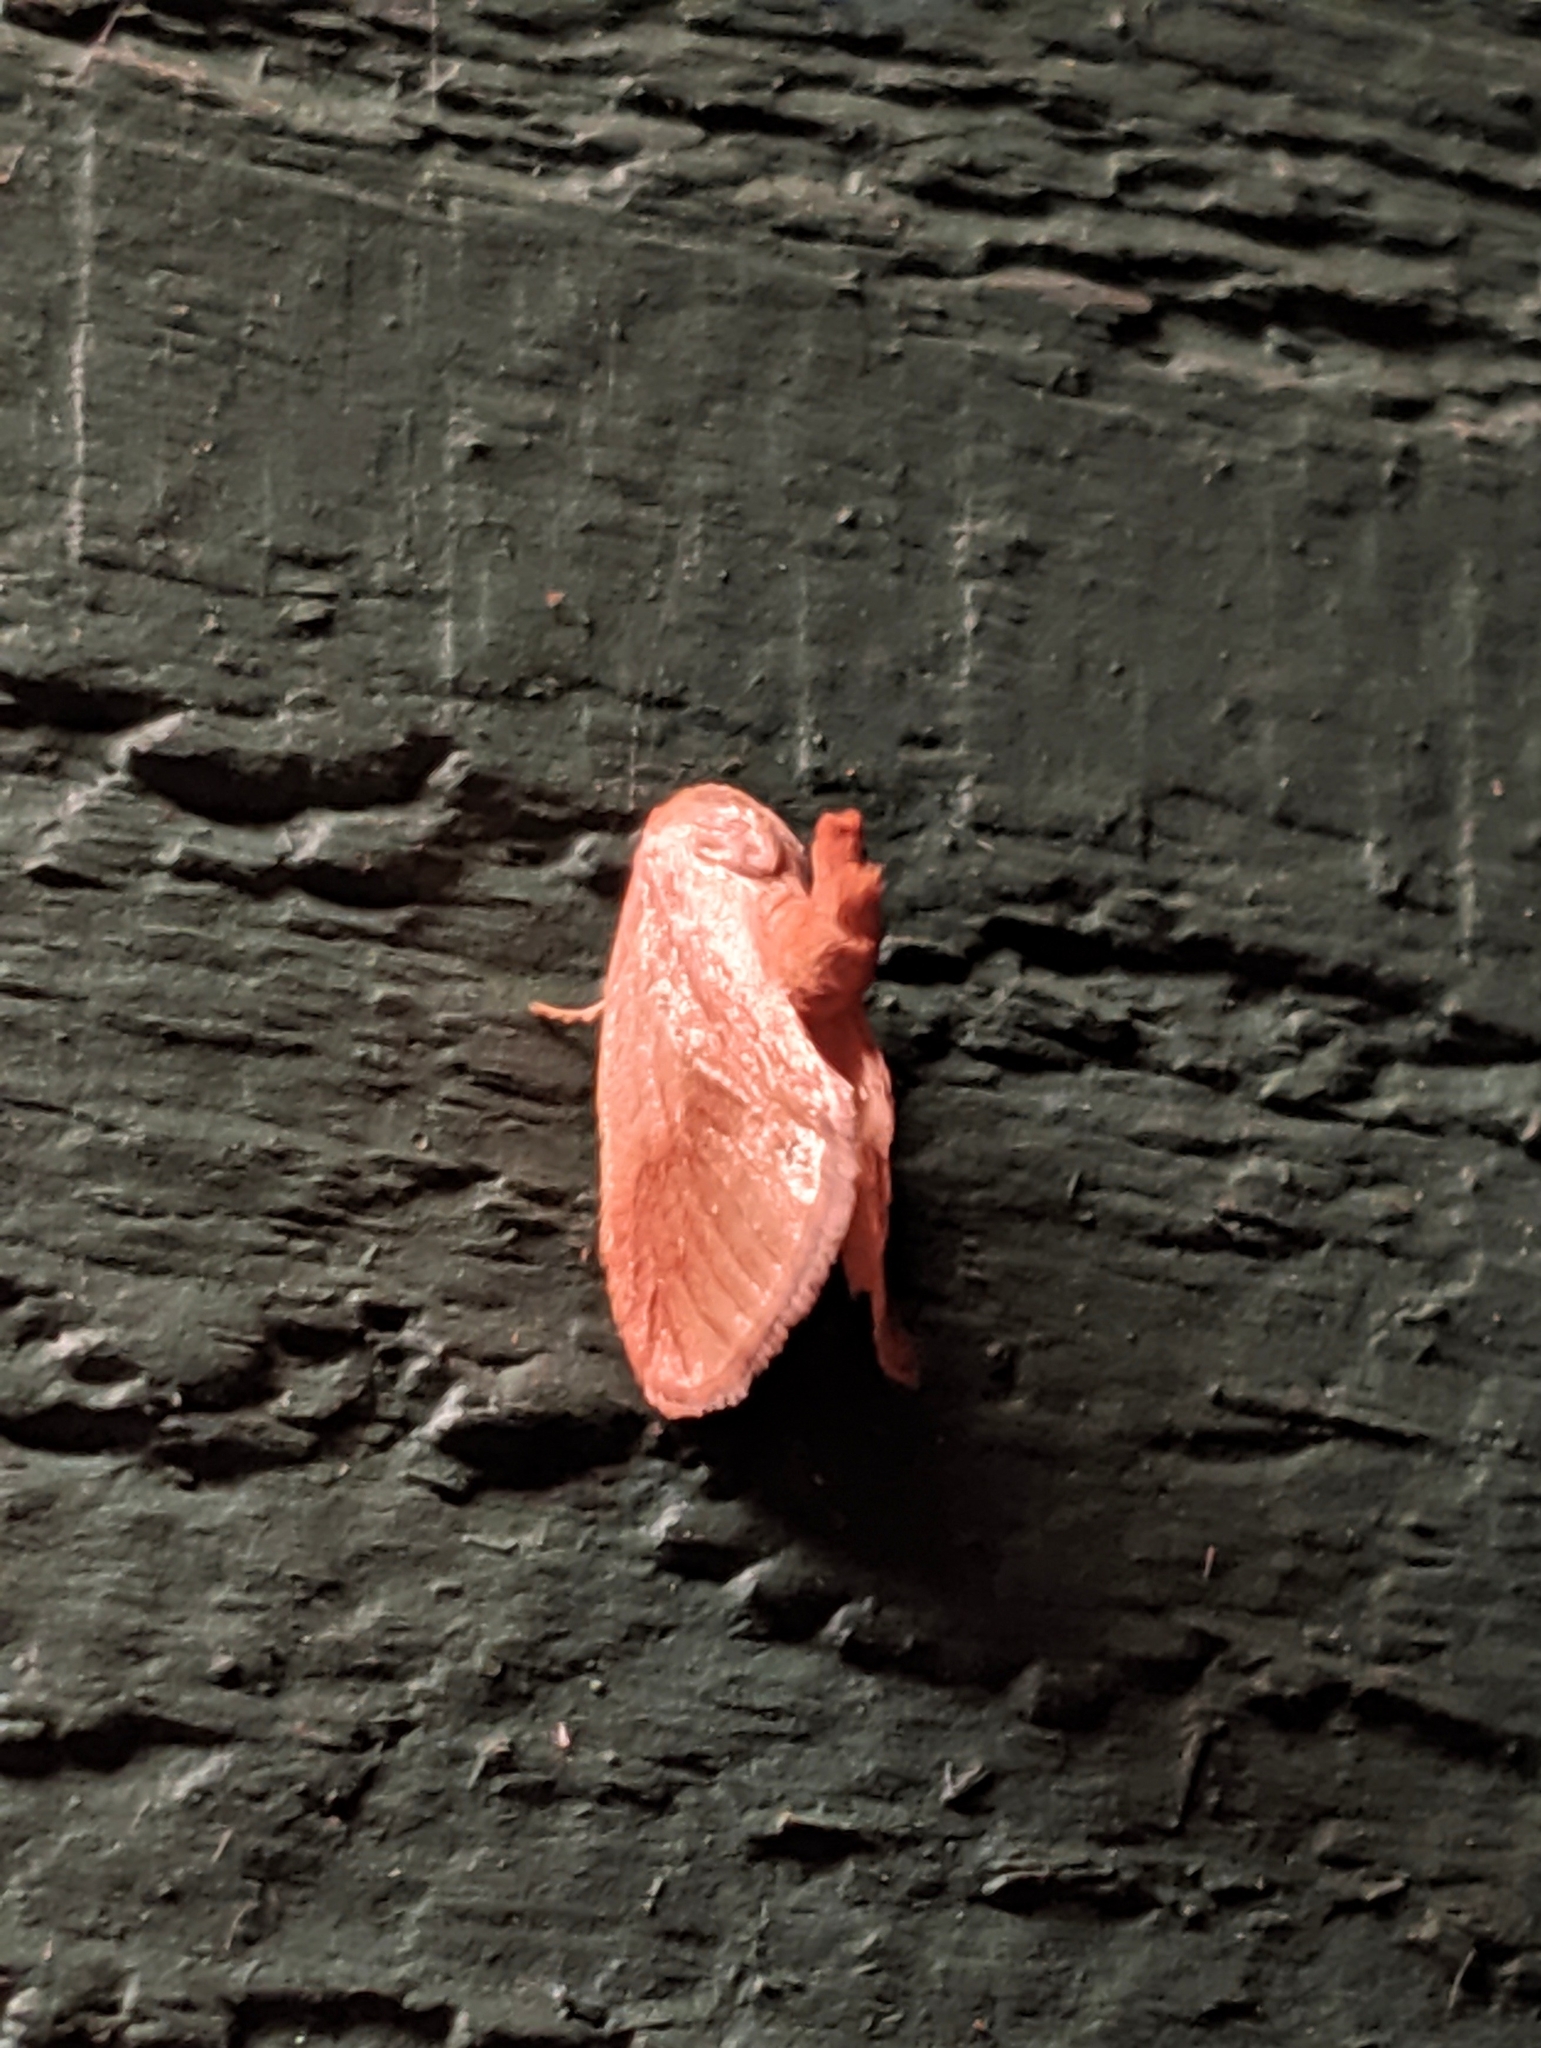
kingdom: Animalia
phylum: Arthropoda
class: Insecta
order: Lepidoptera
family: Limacodidae
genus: Tortricidia
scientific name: Tortricidia testacea
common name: Early button slug moth
